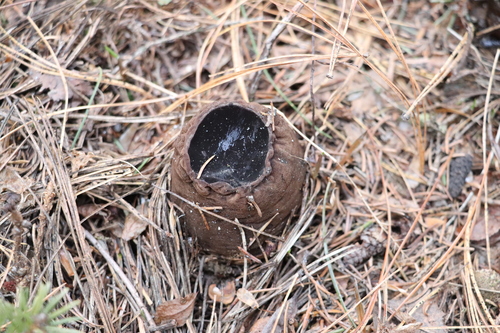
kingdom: Fungi
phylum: Ascomycota
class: Pezizomycetes
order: Pezizales
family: Sarcosomataceae
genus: Sarcosoma
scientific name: Sarcosoma globosum
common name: Charred-pancake cup
